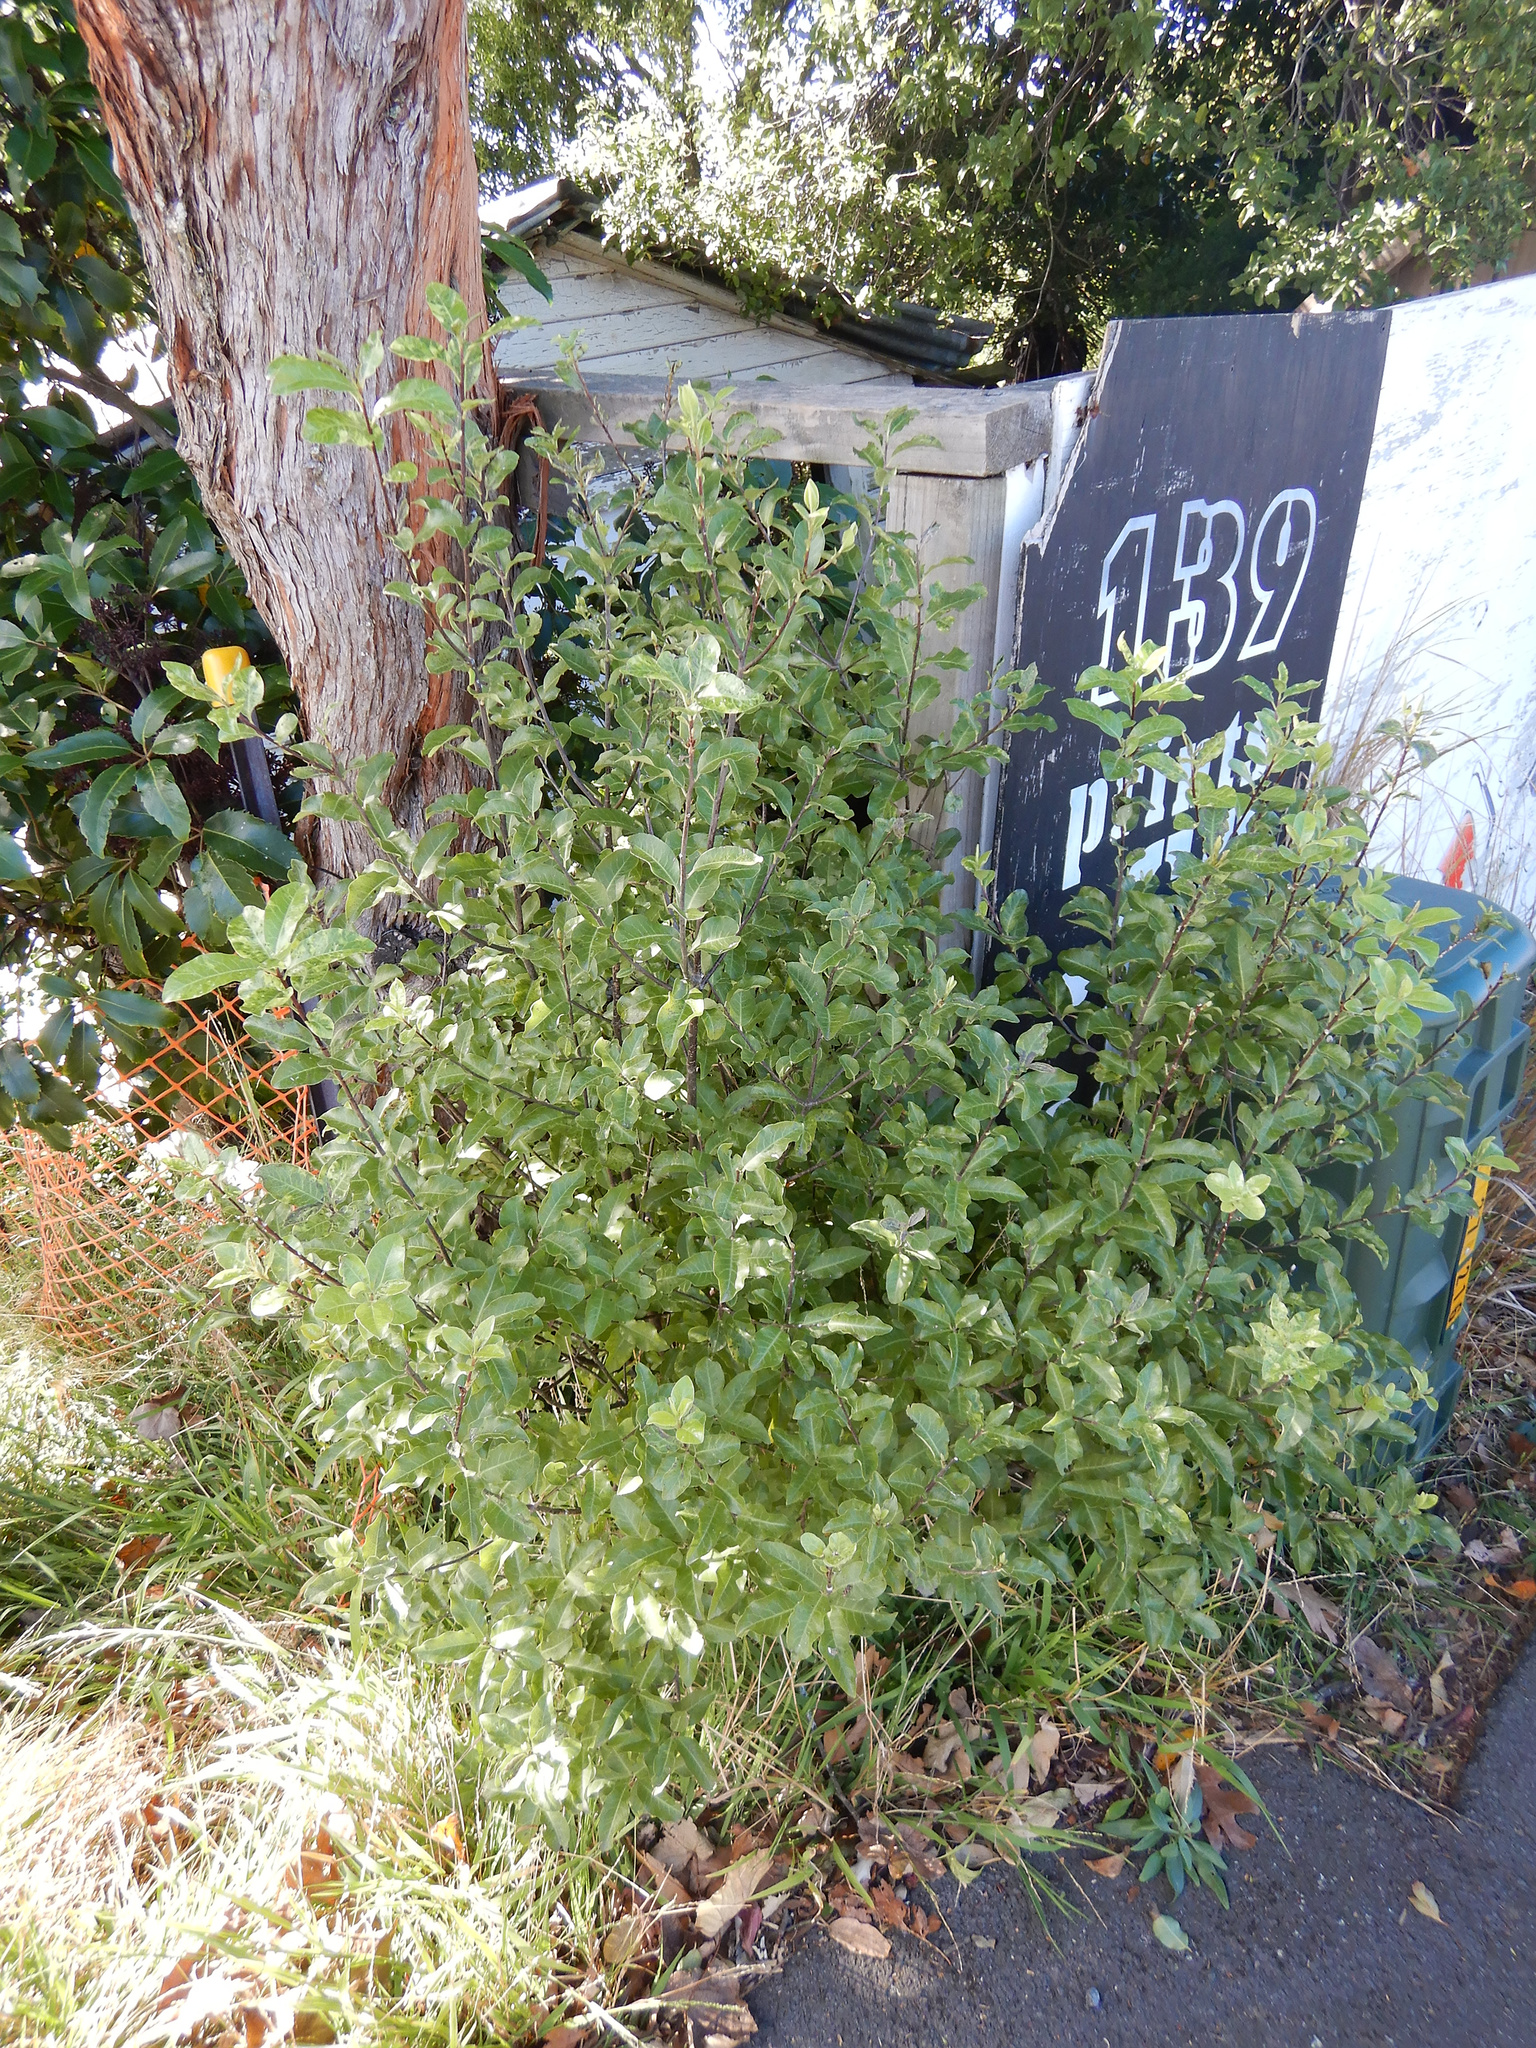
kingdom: Plantae
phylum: Tracheophyta
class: Magnoliopsida
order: Apiales
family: Pittosporaceae
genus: Pittosporum
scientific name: Pittosporum tenuifolium
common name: Kohuhu
